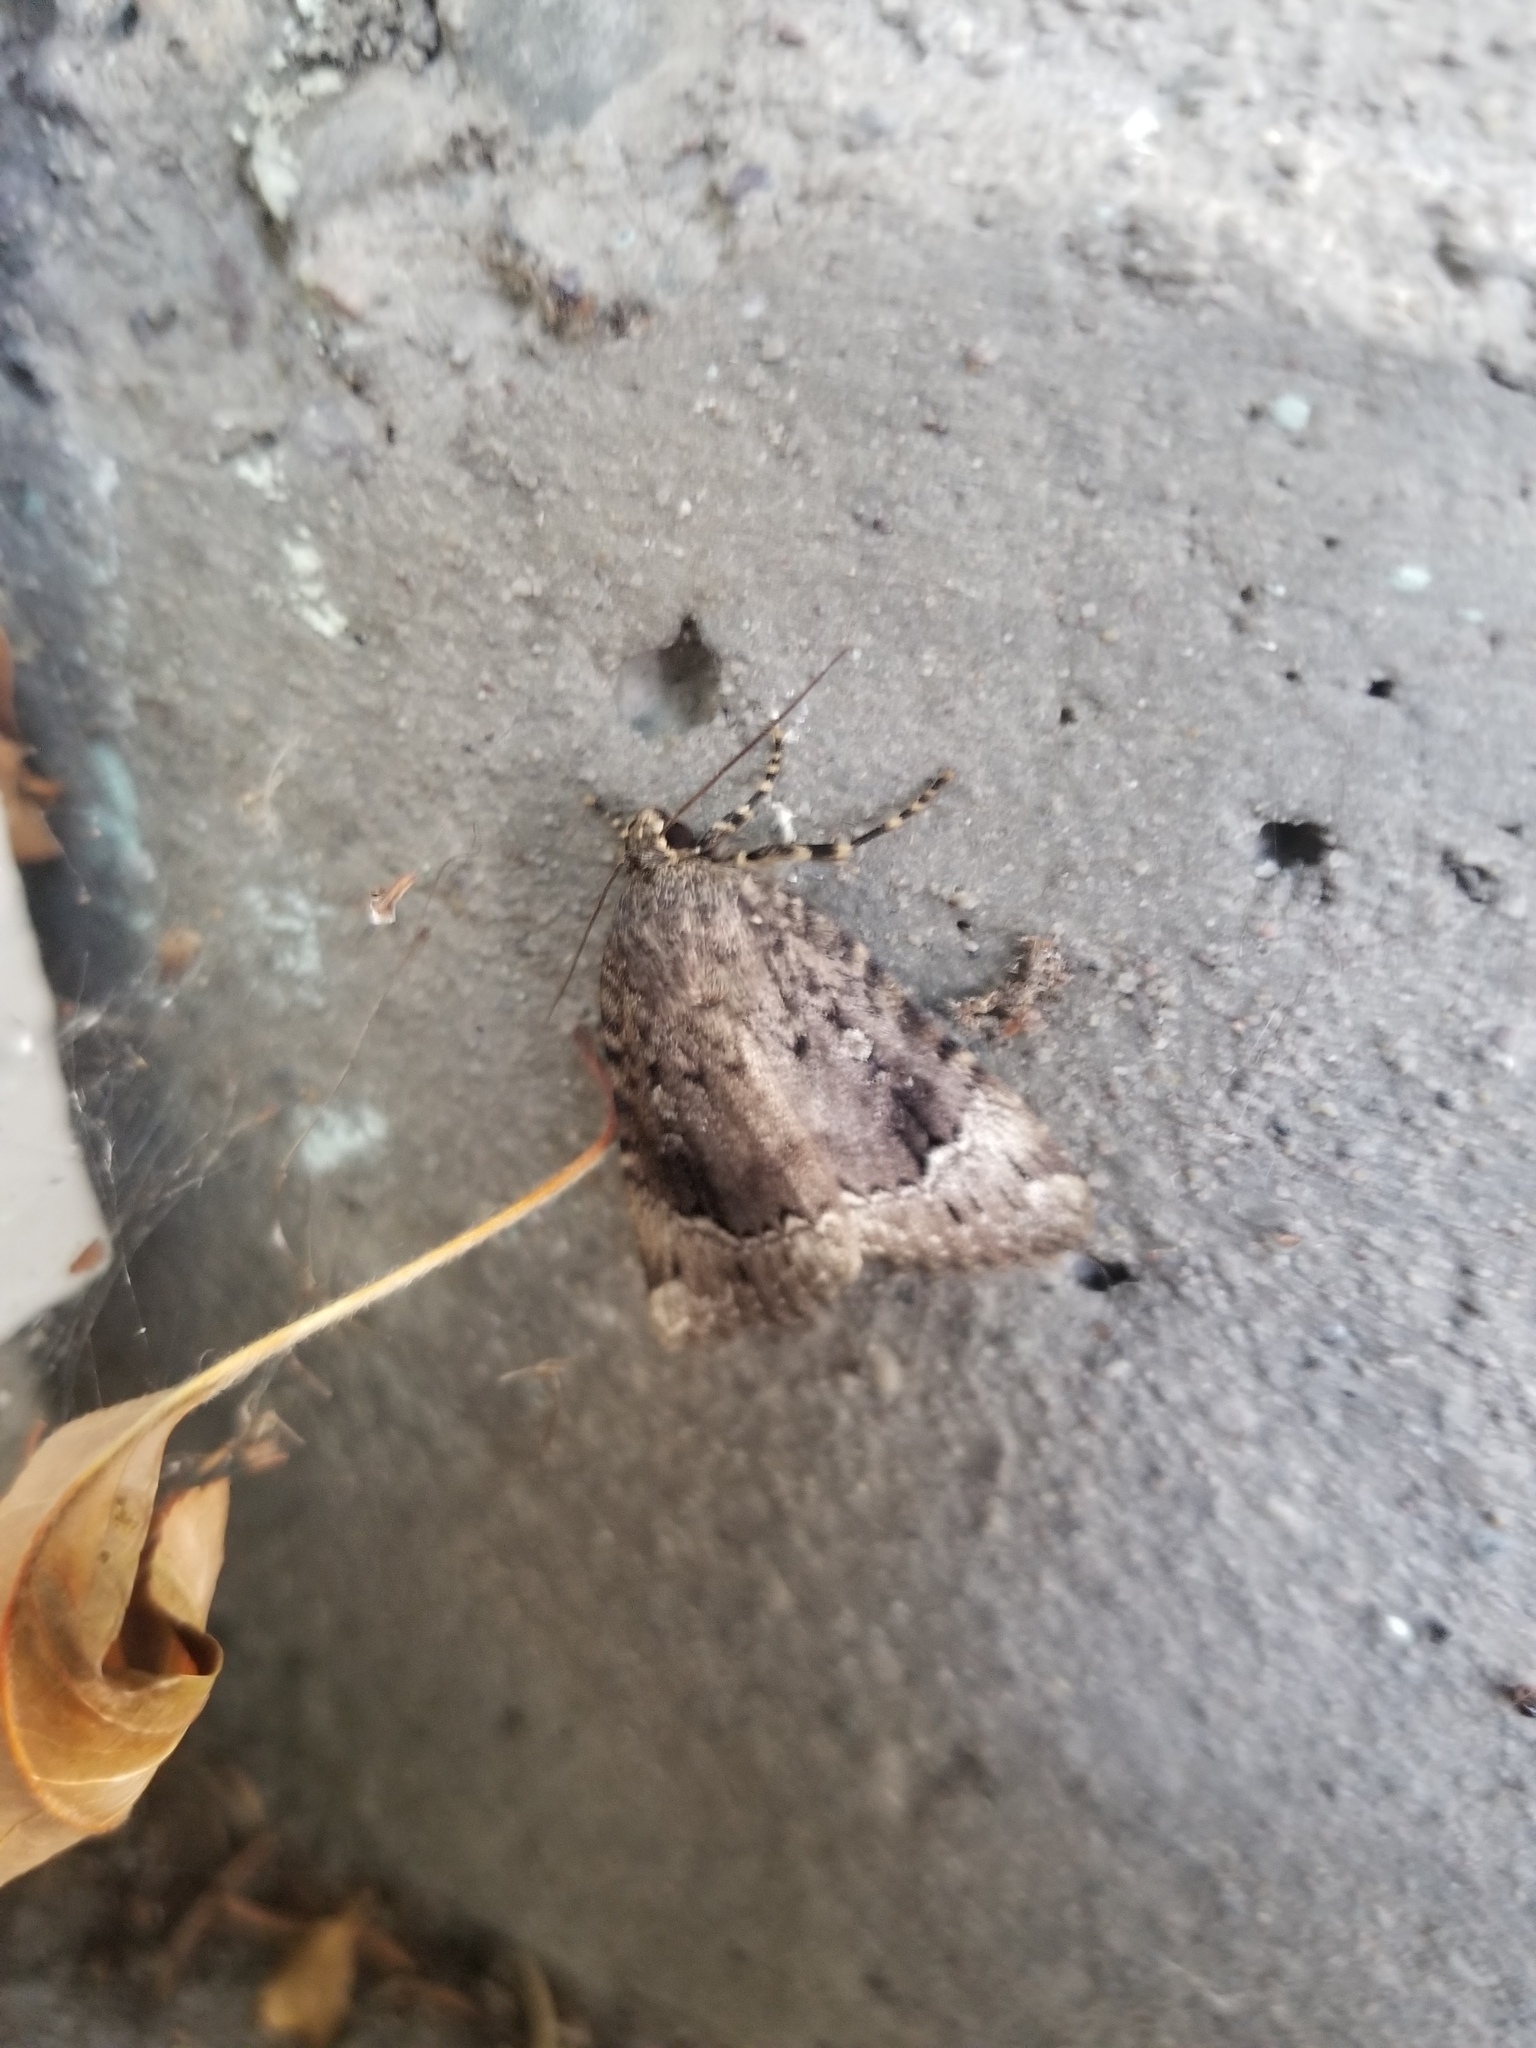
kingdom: Animalia
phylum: Arthropoda
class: Insecta
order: Lepidoptera
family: Noctuidae
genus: Amphipyra
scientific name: Amphipyra pyramidoides
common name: American copper underwing
